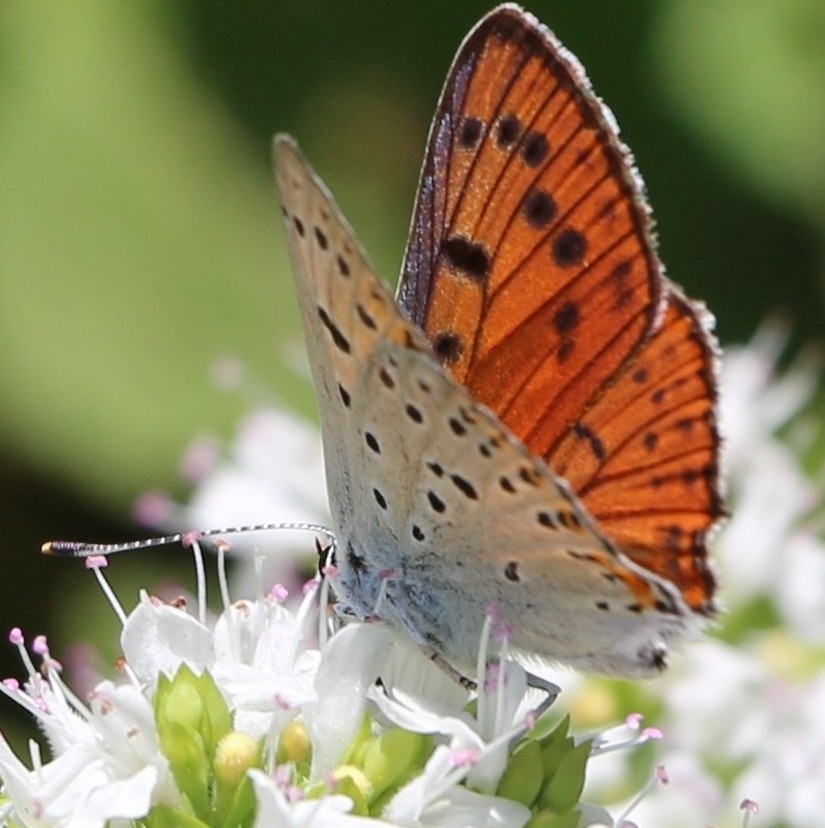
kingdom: Animalia
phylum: Arthropoda
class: Insecta
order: Lepidoptera
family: Lycaenidae
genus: Lycaena
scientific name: Lycaena alciphron
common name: Purple-shot copper
